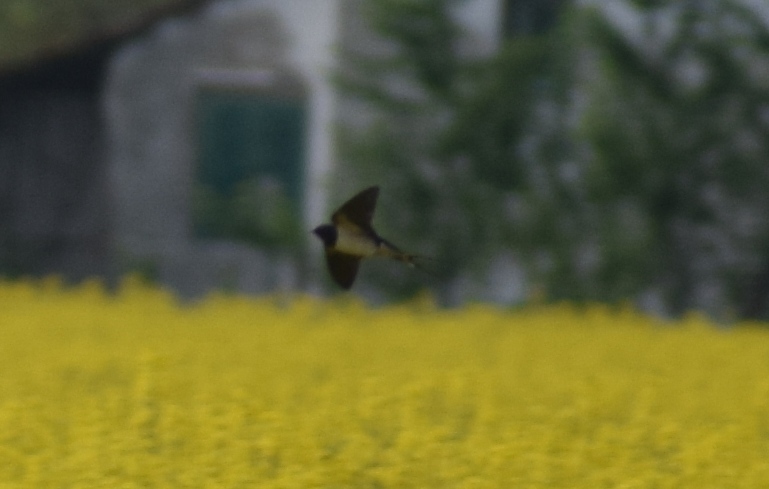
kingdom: Animalia
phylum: Chordata
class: Aves
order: Passeriformes
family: Hirundinidae
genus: Hirundo
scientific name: Hirundo rustica
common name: Barn swallow
